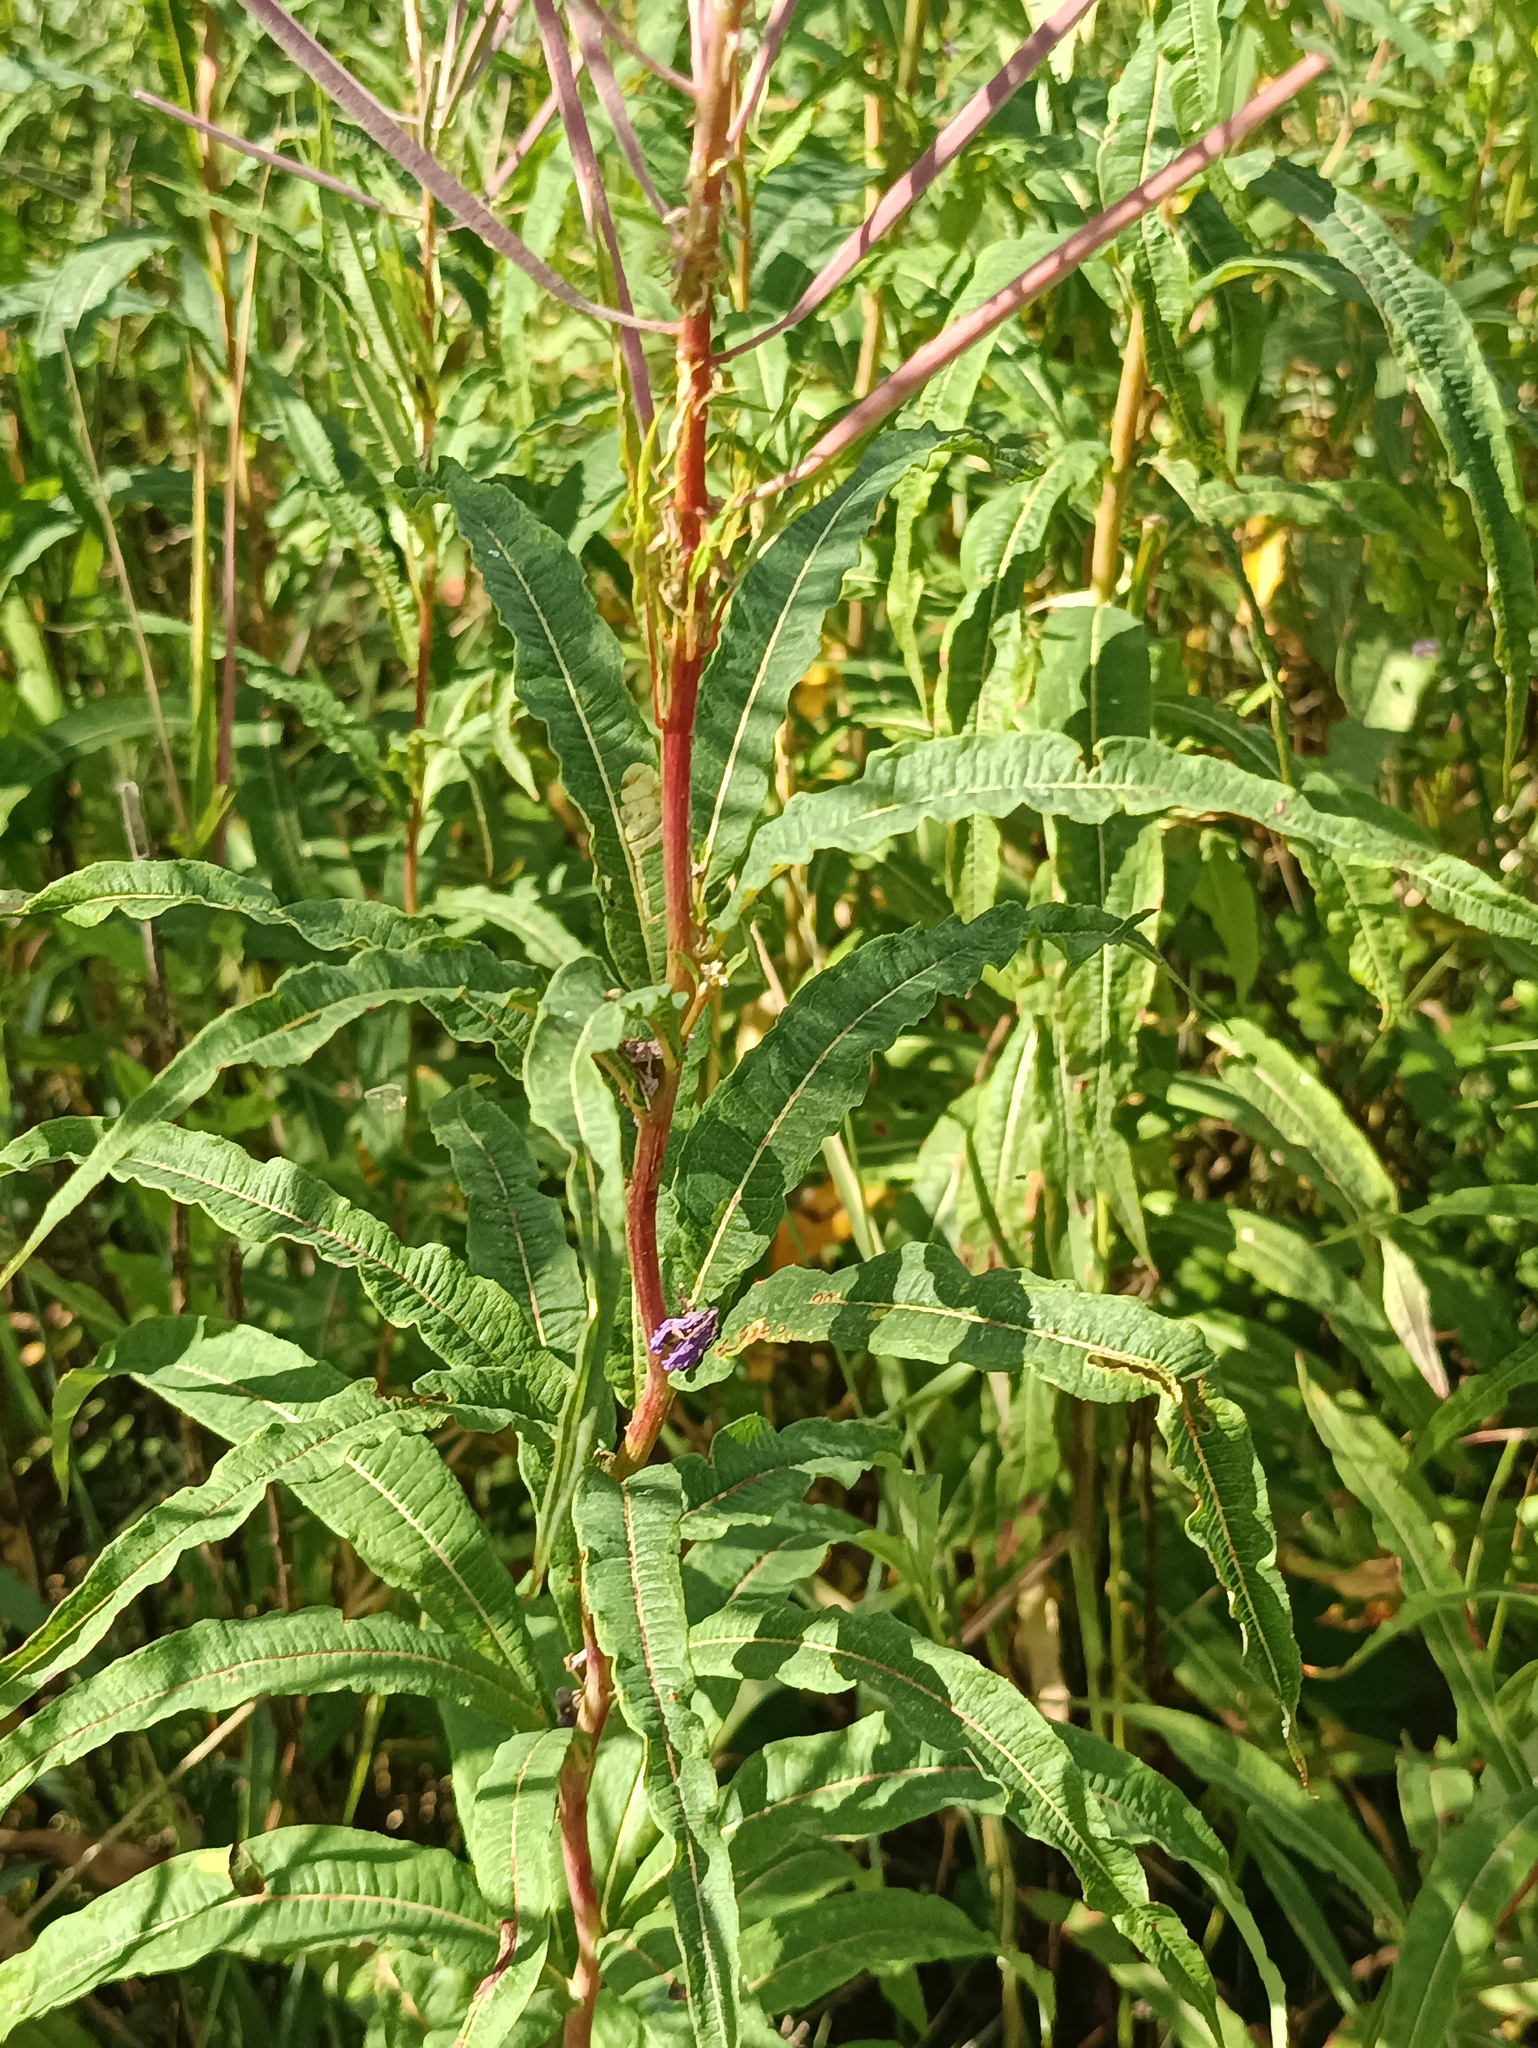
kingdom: Plantae
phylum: Tracheophyta
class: Magnoliopsida
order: Myrtales
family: Onagraceae
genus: Chamaenerion
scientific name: Chamaenerion angustifolium
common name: Fireweed
